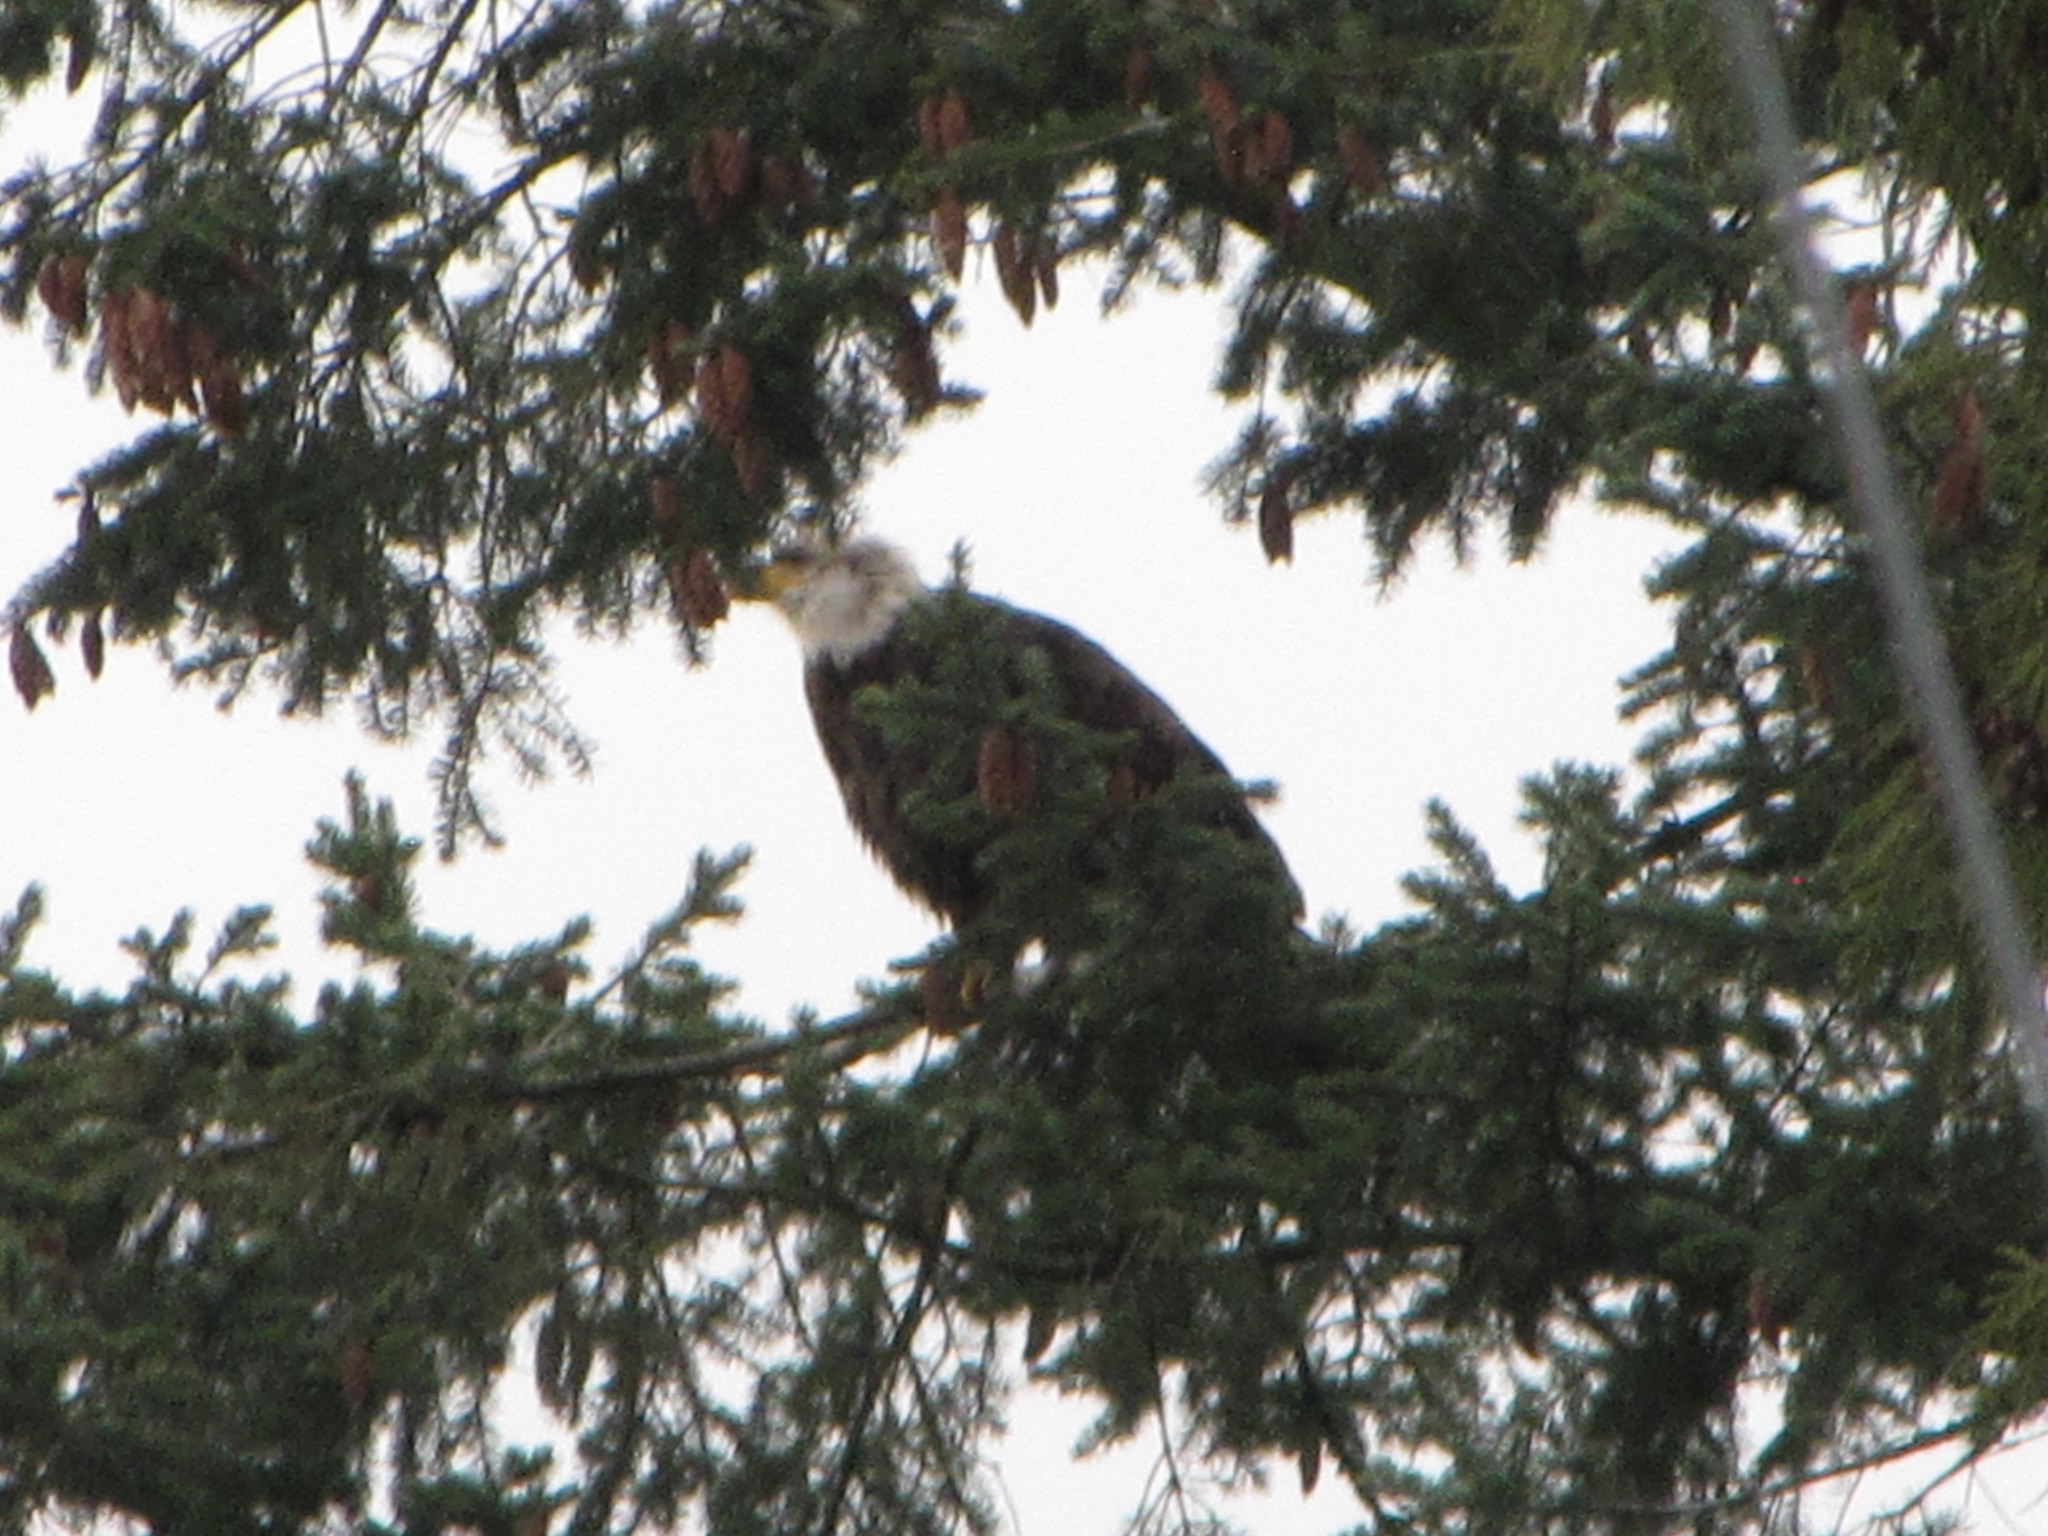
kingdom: Animalia
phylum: Chordata
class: Aves
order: Accipitriformes
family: Accipitridae
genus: Haliaeetus
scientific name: Haliaeetus leucocephalus
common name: Bald eagle
